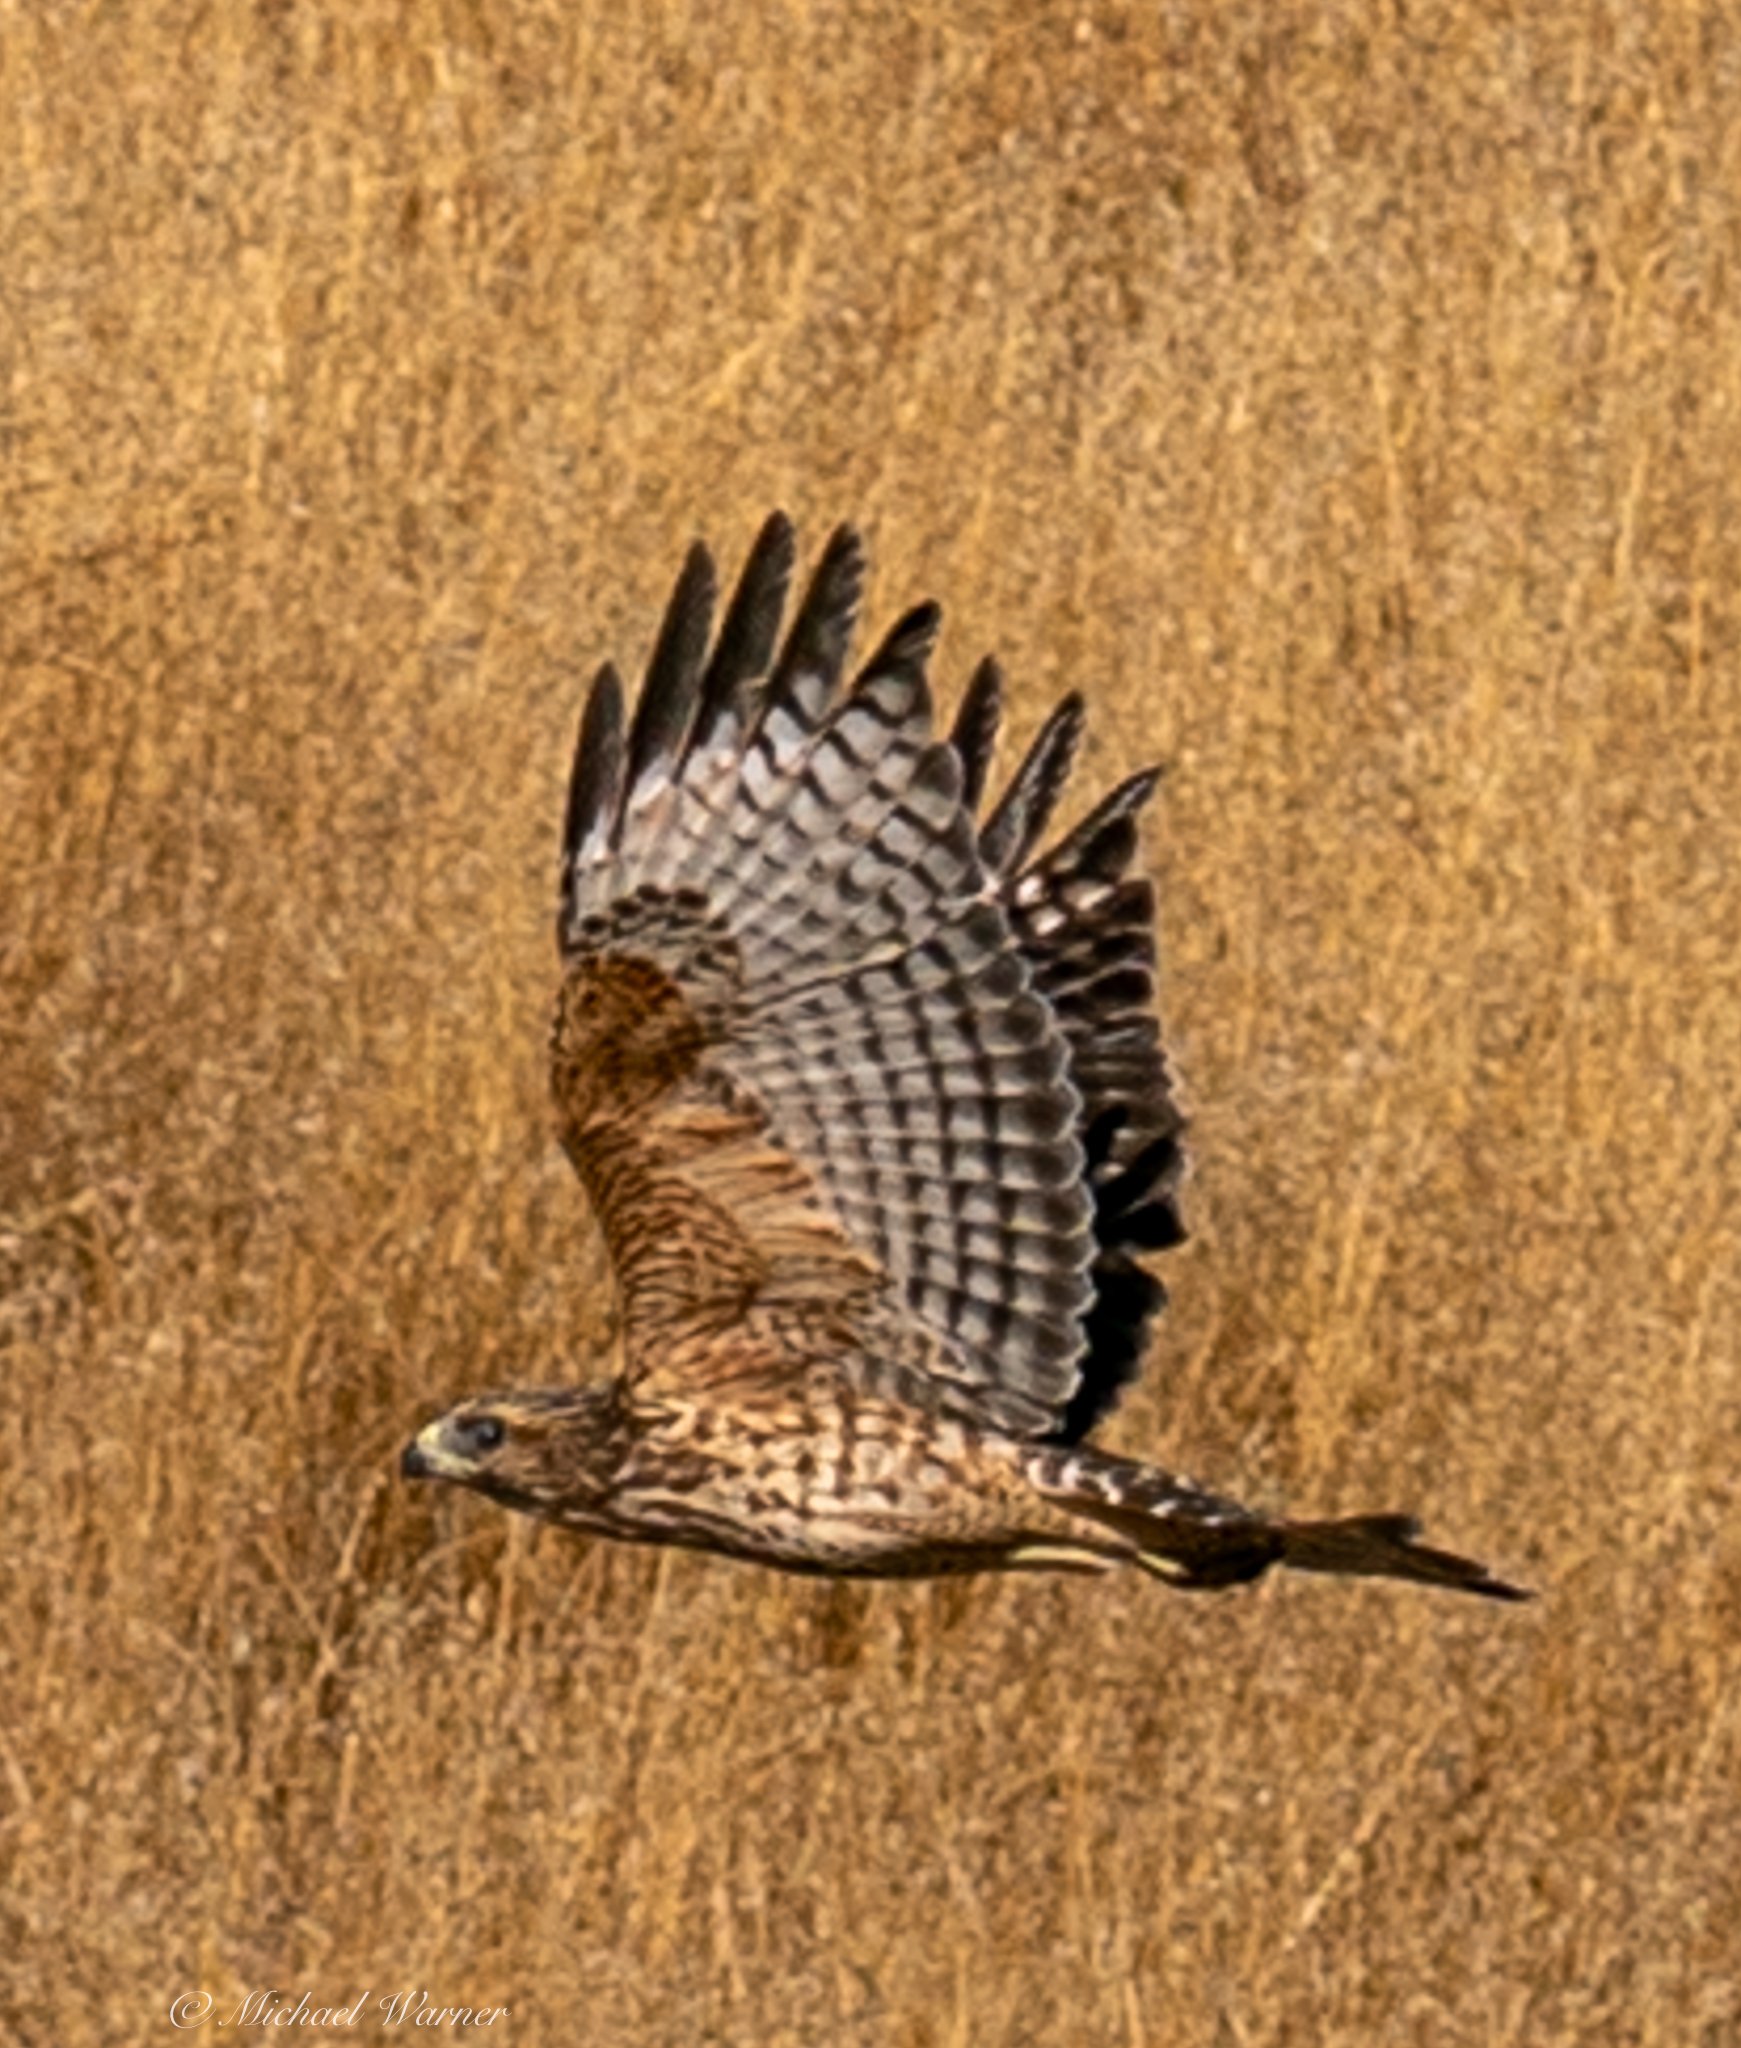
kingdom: Animalia
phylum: Chordata
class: Aves
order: Accipitriformes
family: Accipitridae
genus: Buteo
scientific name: Buteo lineatus
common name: Red-shouldered hawk
